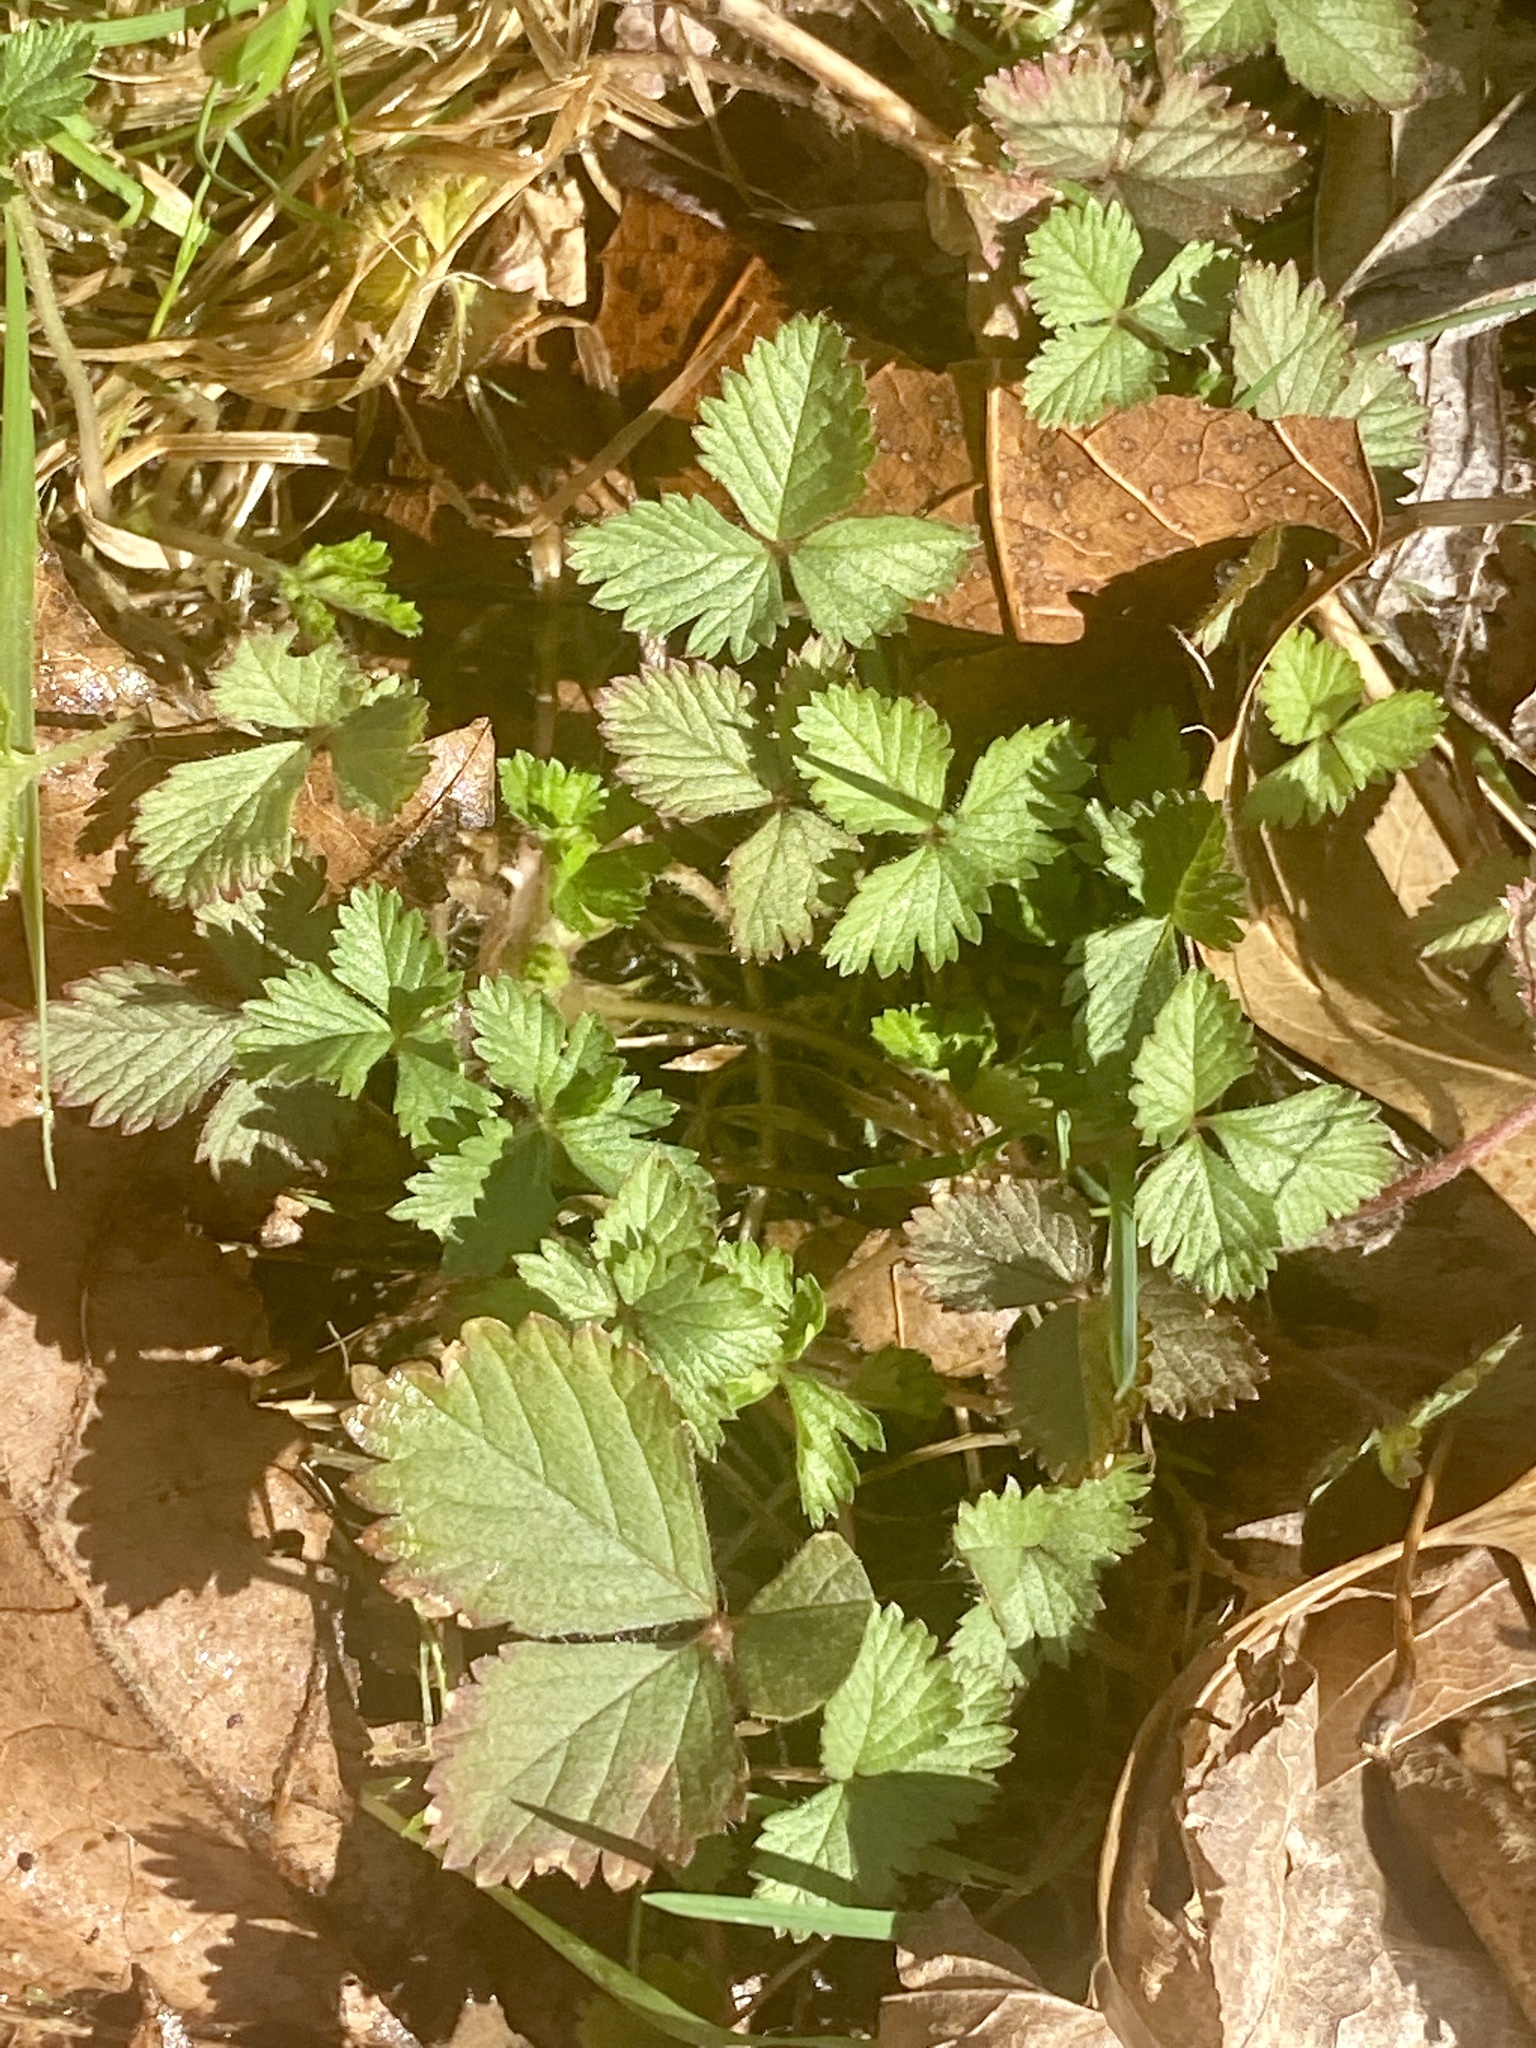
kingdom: Plantae
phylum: Tracheophyta
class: Magnoliopsida
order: Rosales
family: Rosaceae
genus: Potentilla
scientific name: Potentilla indica
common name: Yellow-flowered strawberry
